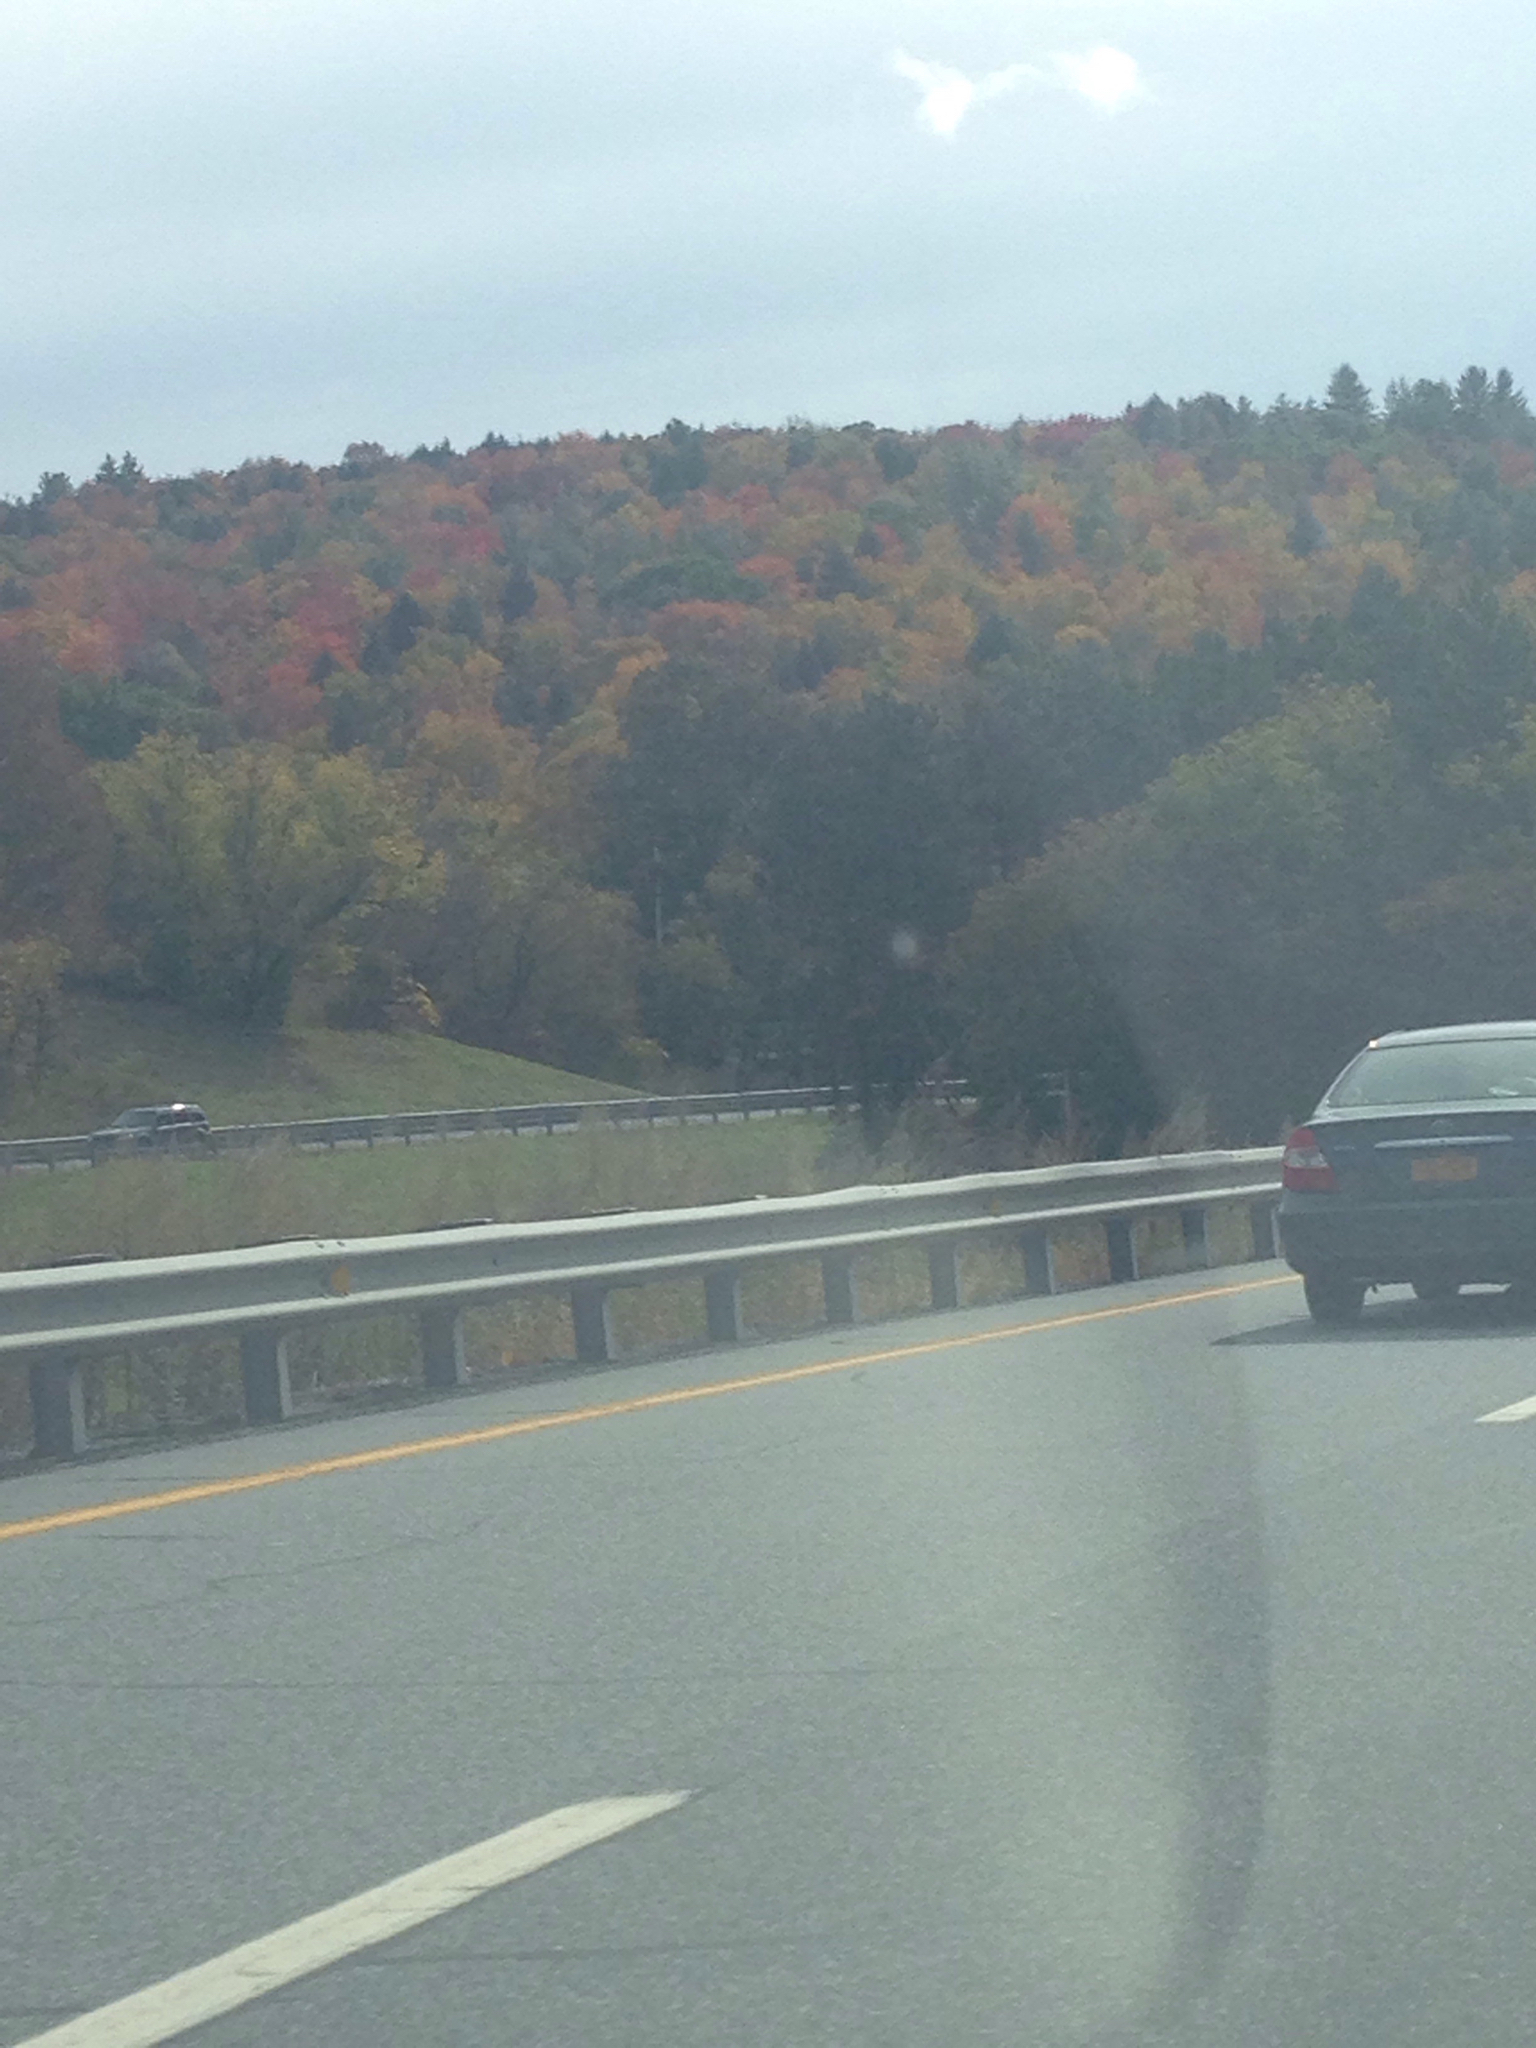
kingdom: Plantae
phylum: Tracheophyta
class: Magnoliopsida
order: Sapindales
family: Sapindaceae
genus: Acer
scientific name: Acer rubrum
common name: Red maple
